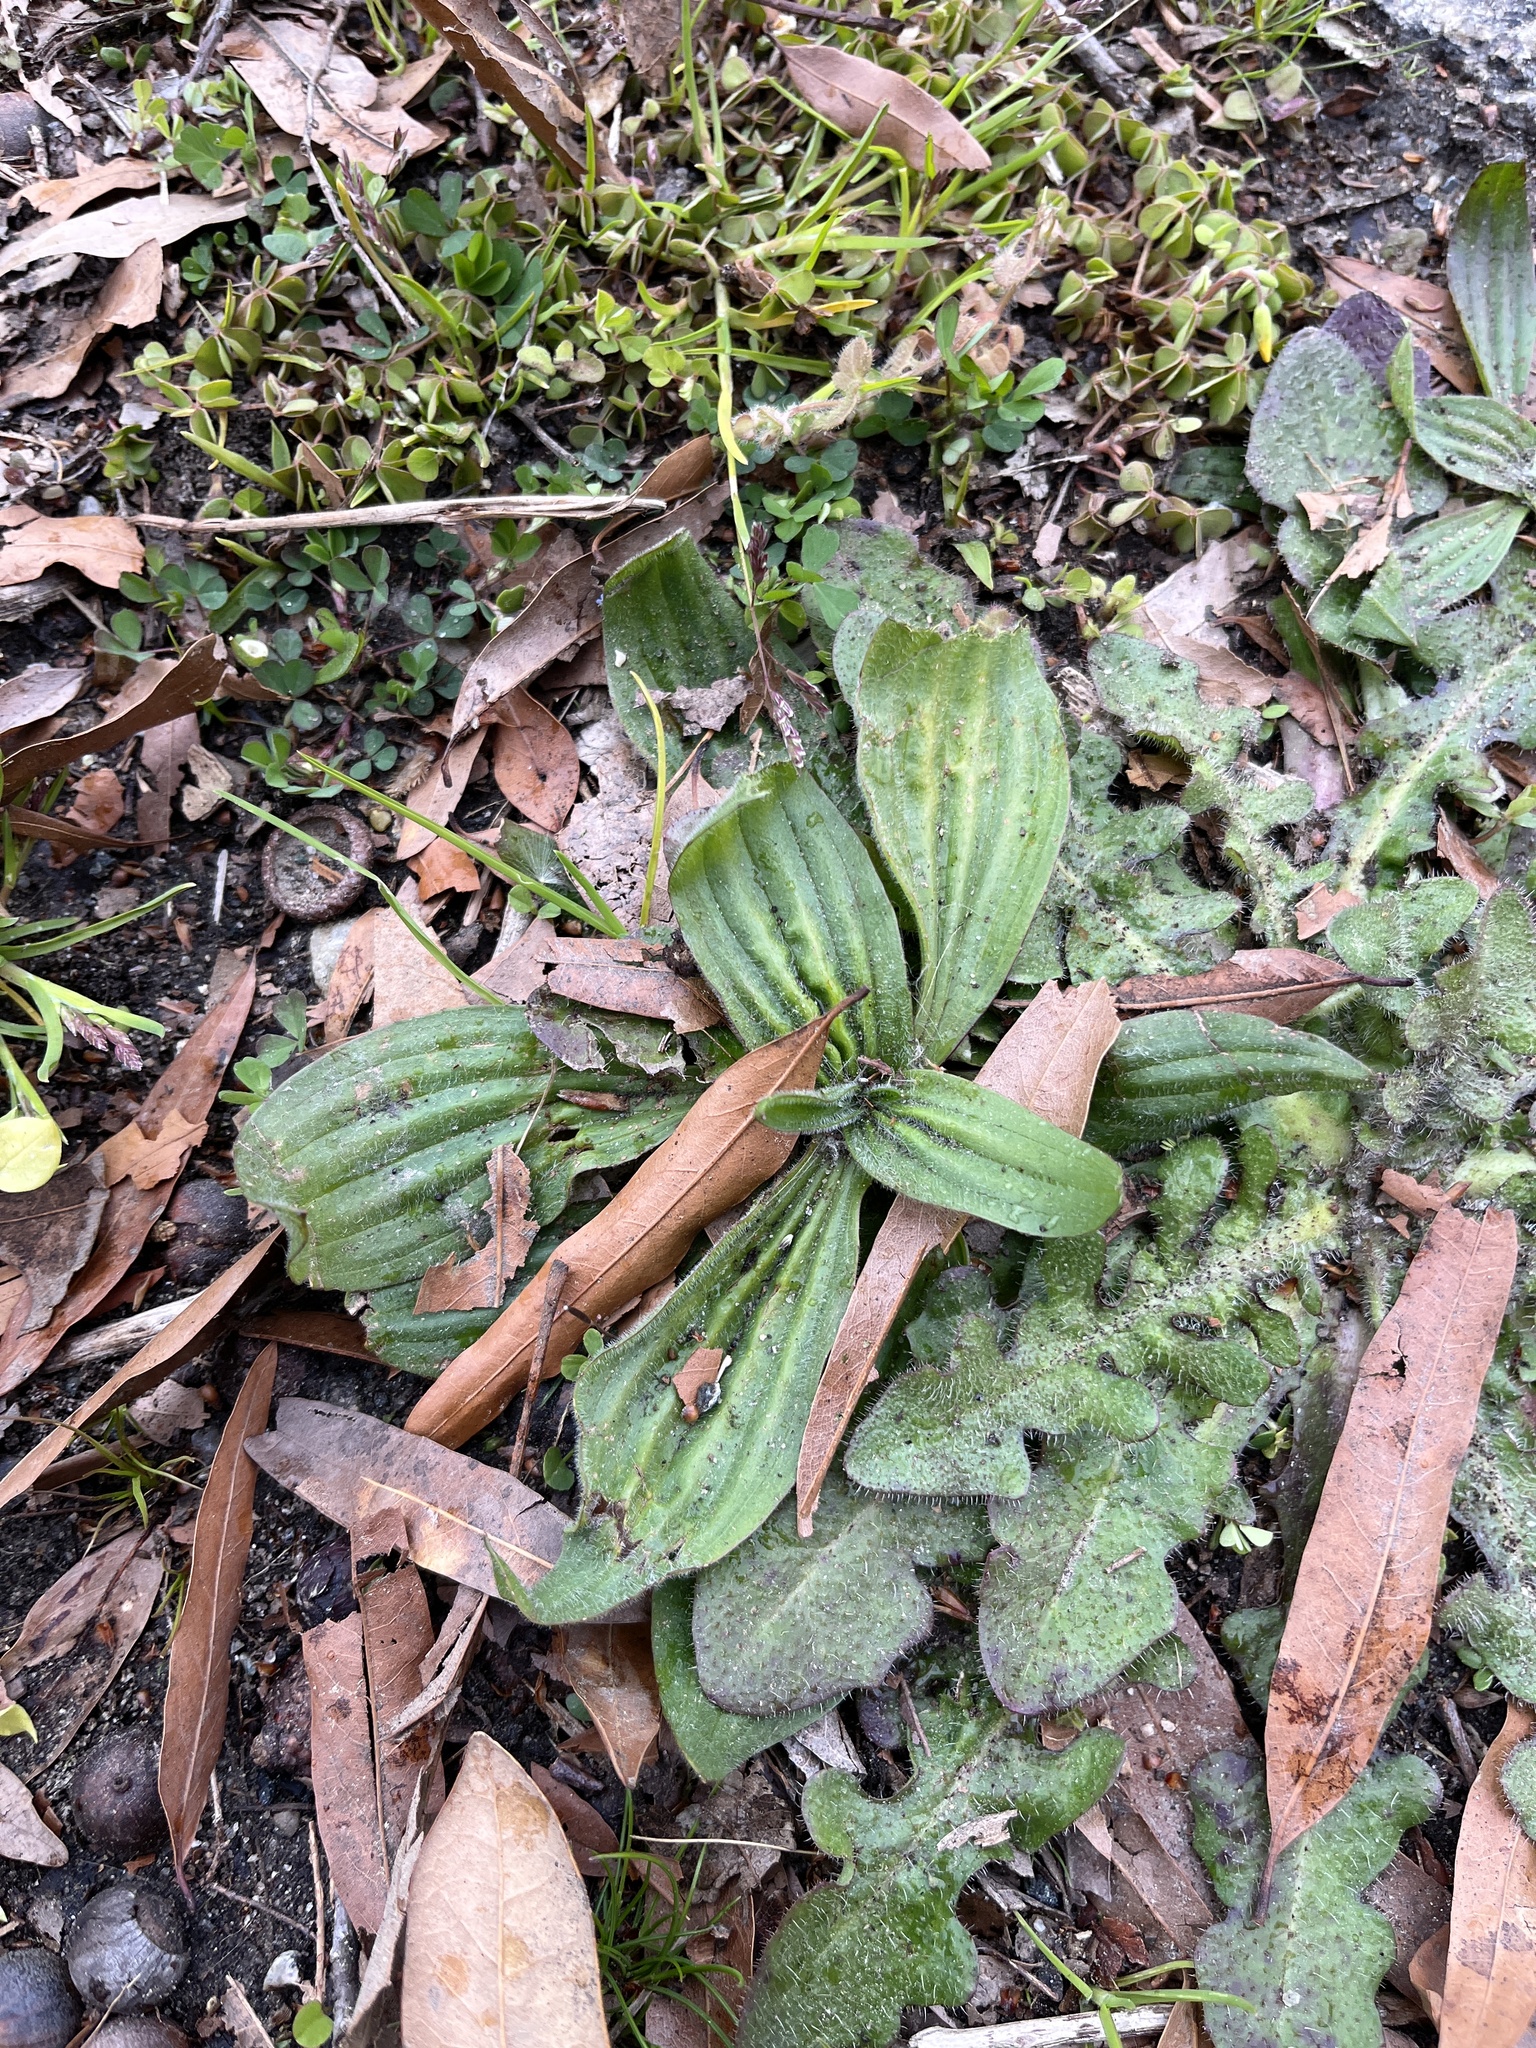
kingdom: Plantae
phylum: Tracheophyta
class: Magnoliopsida
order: Lamiales
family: Plantaginaceae
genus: Plantago
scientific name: Plantago lanceolata
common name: Ribwort plantain
